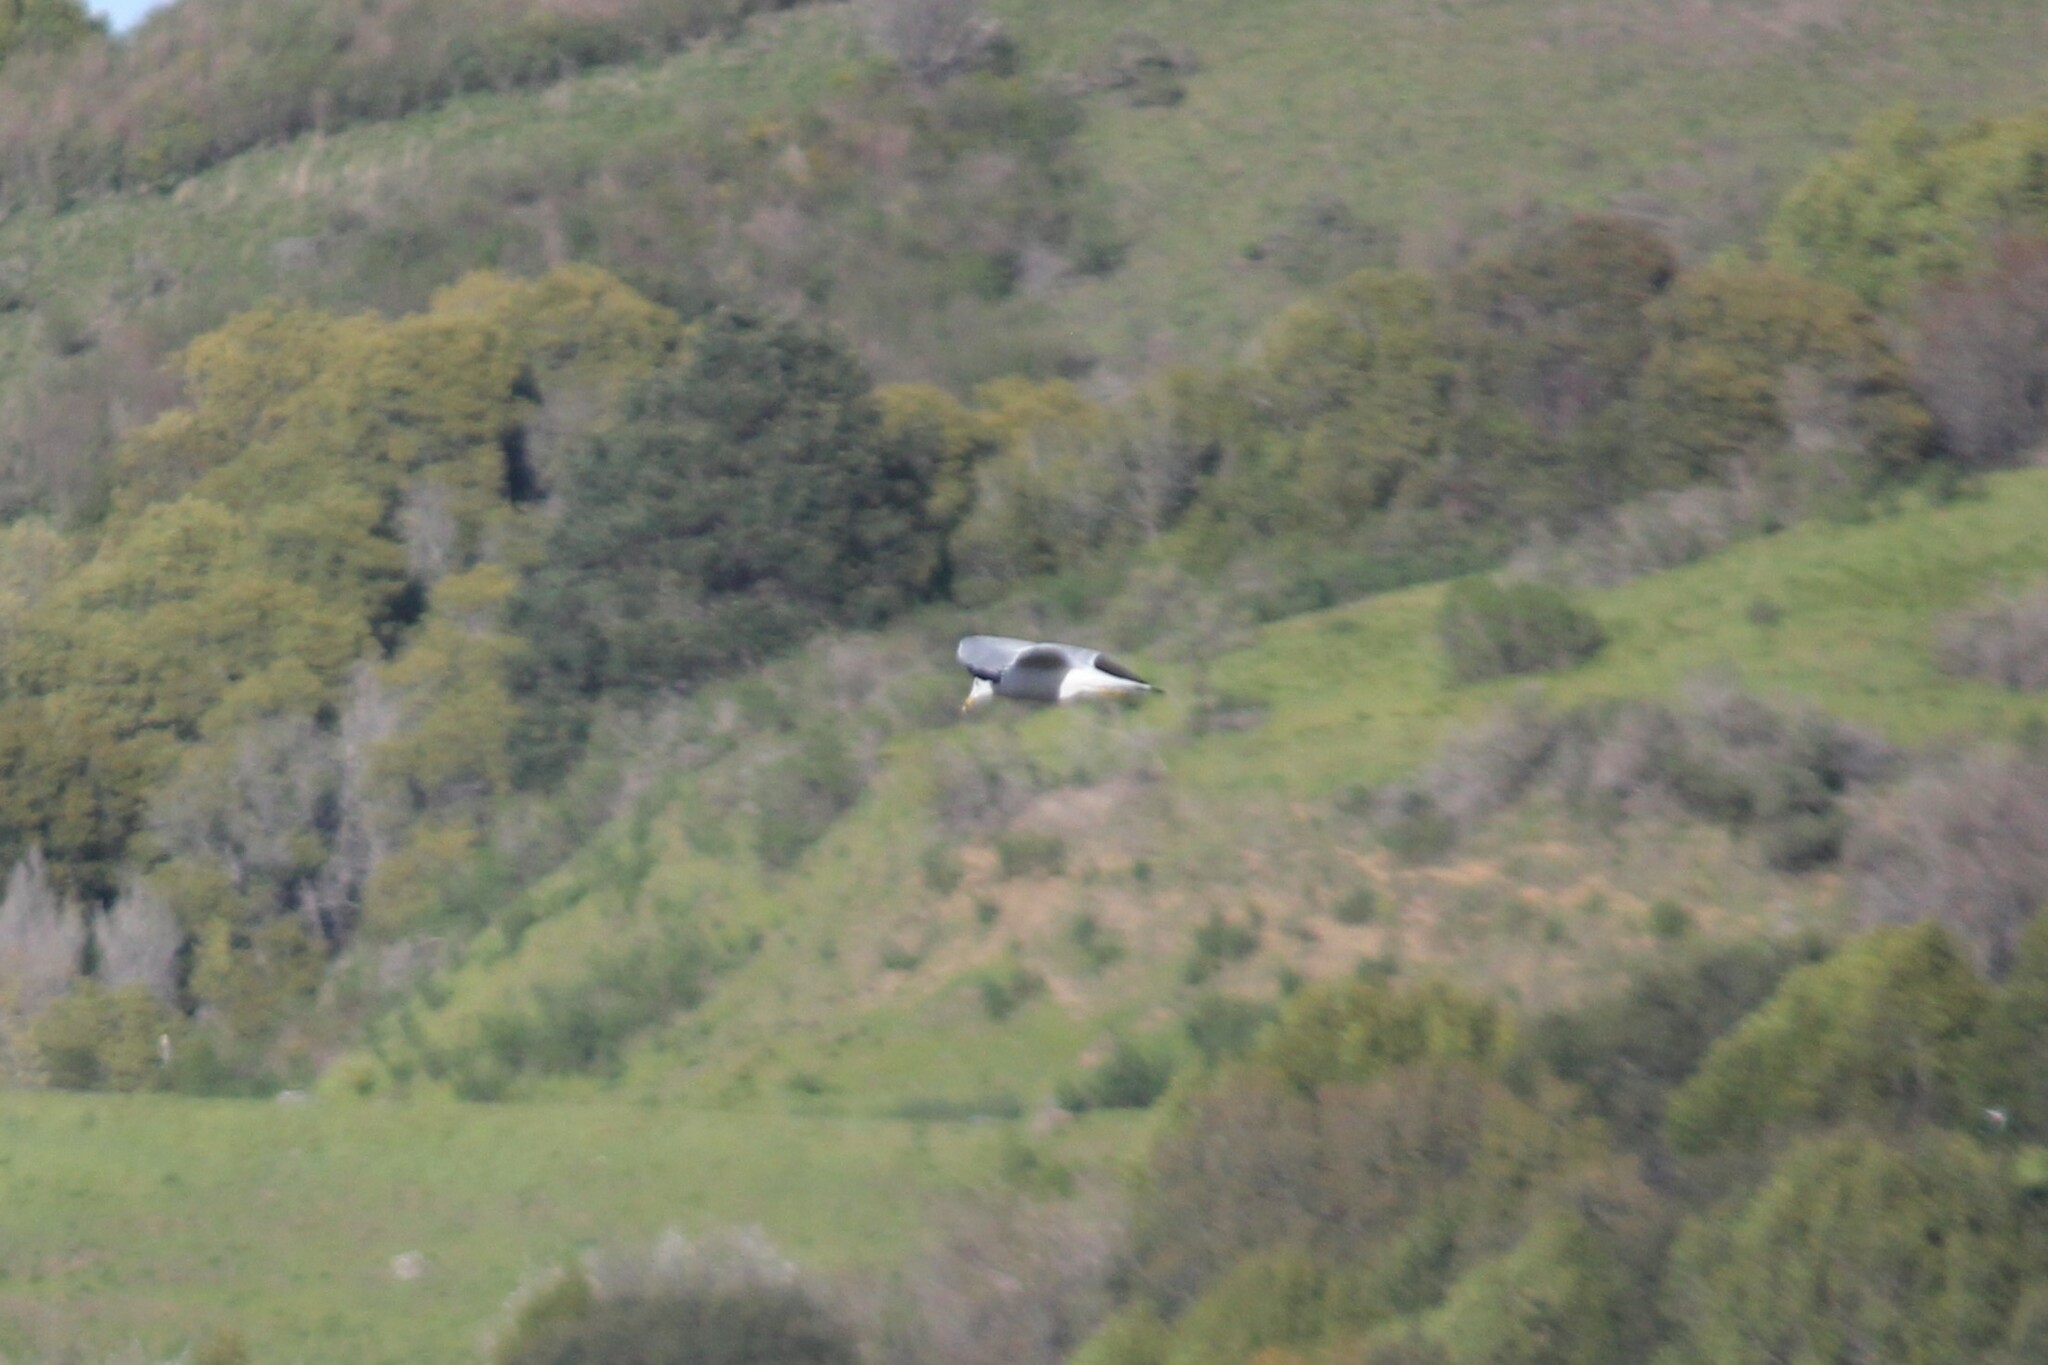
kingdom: Animalia
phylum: Chordata
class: Aves
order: Charadriiformes
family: Laridae
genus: Larus
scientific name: Larus delawarensis
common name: Ring-billed gull
